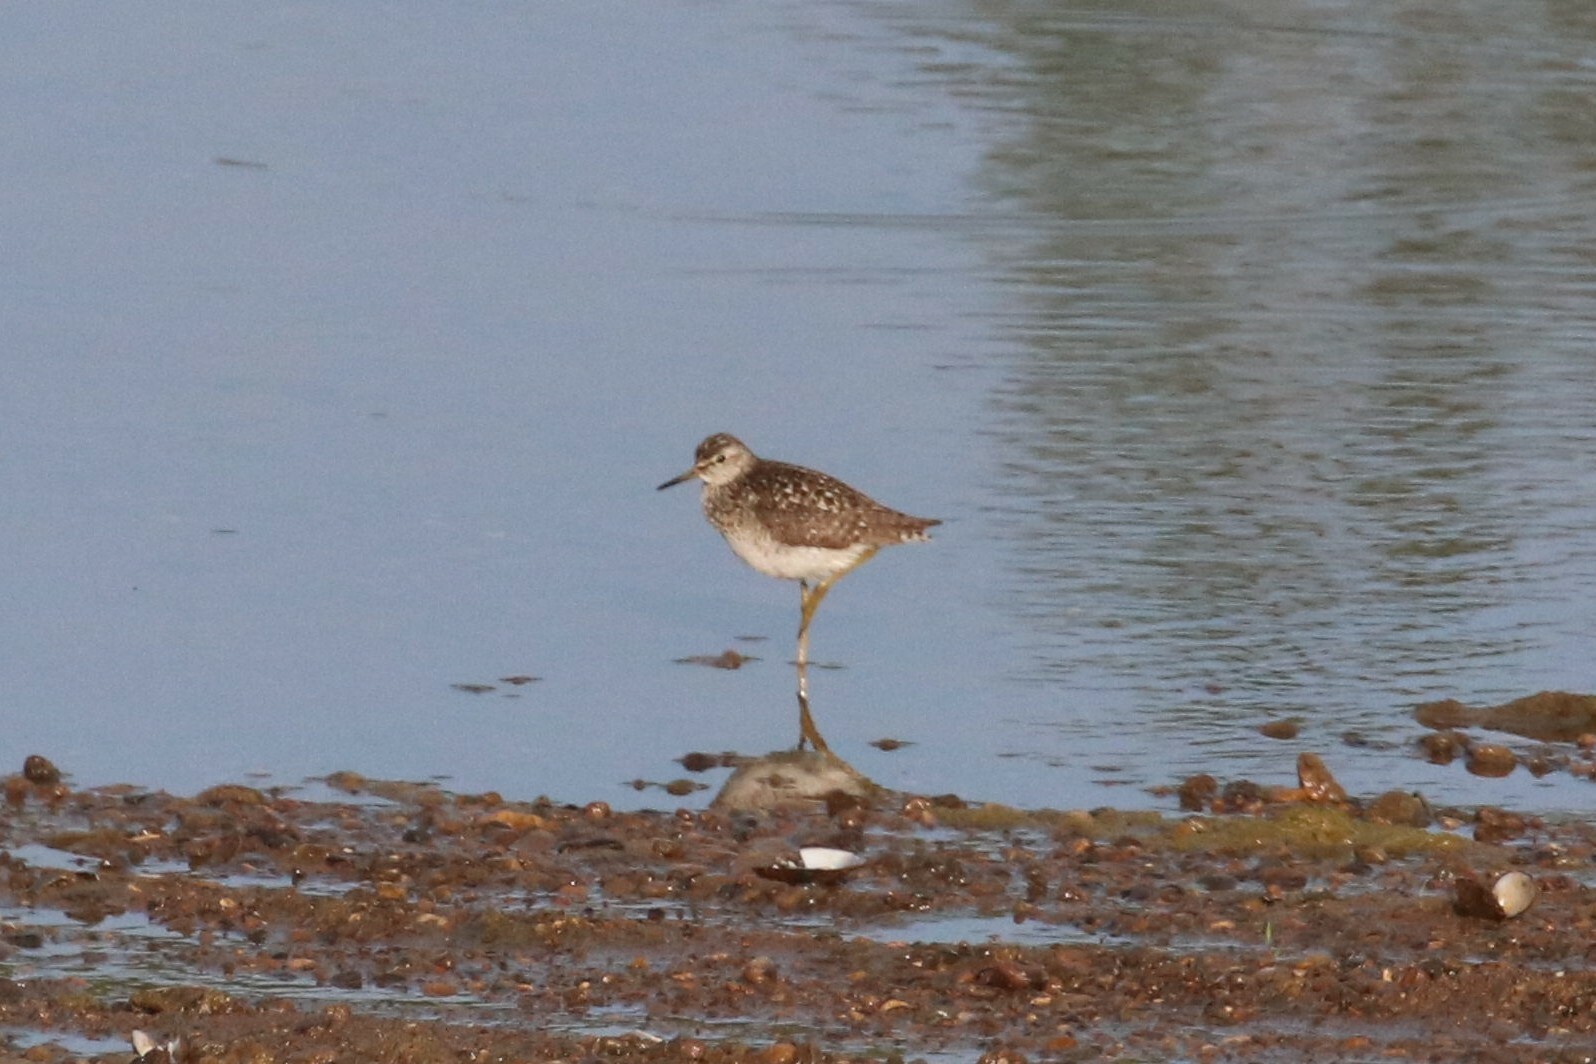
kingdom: Animalia
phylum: Chordata
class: Aves
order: Charadriiformes
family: Scolopacidae
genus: Tringa
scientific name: Tringa glareola
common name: Wood sandpiper
